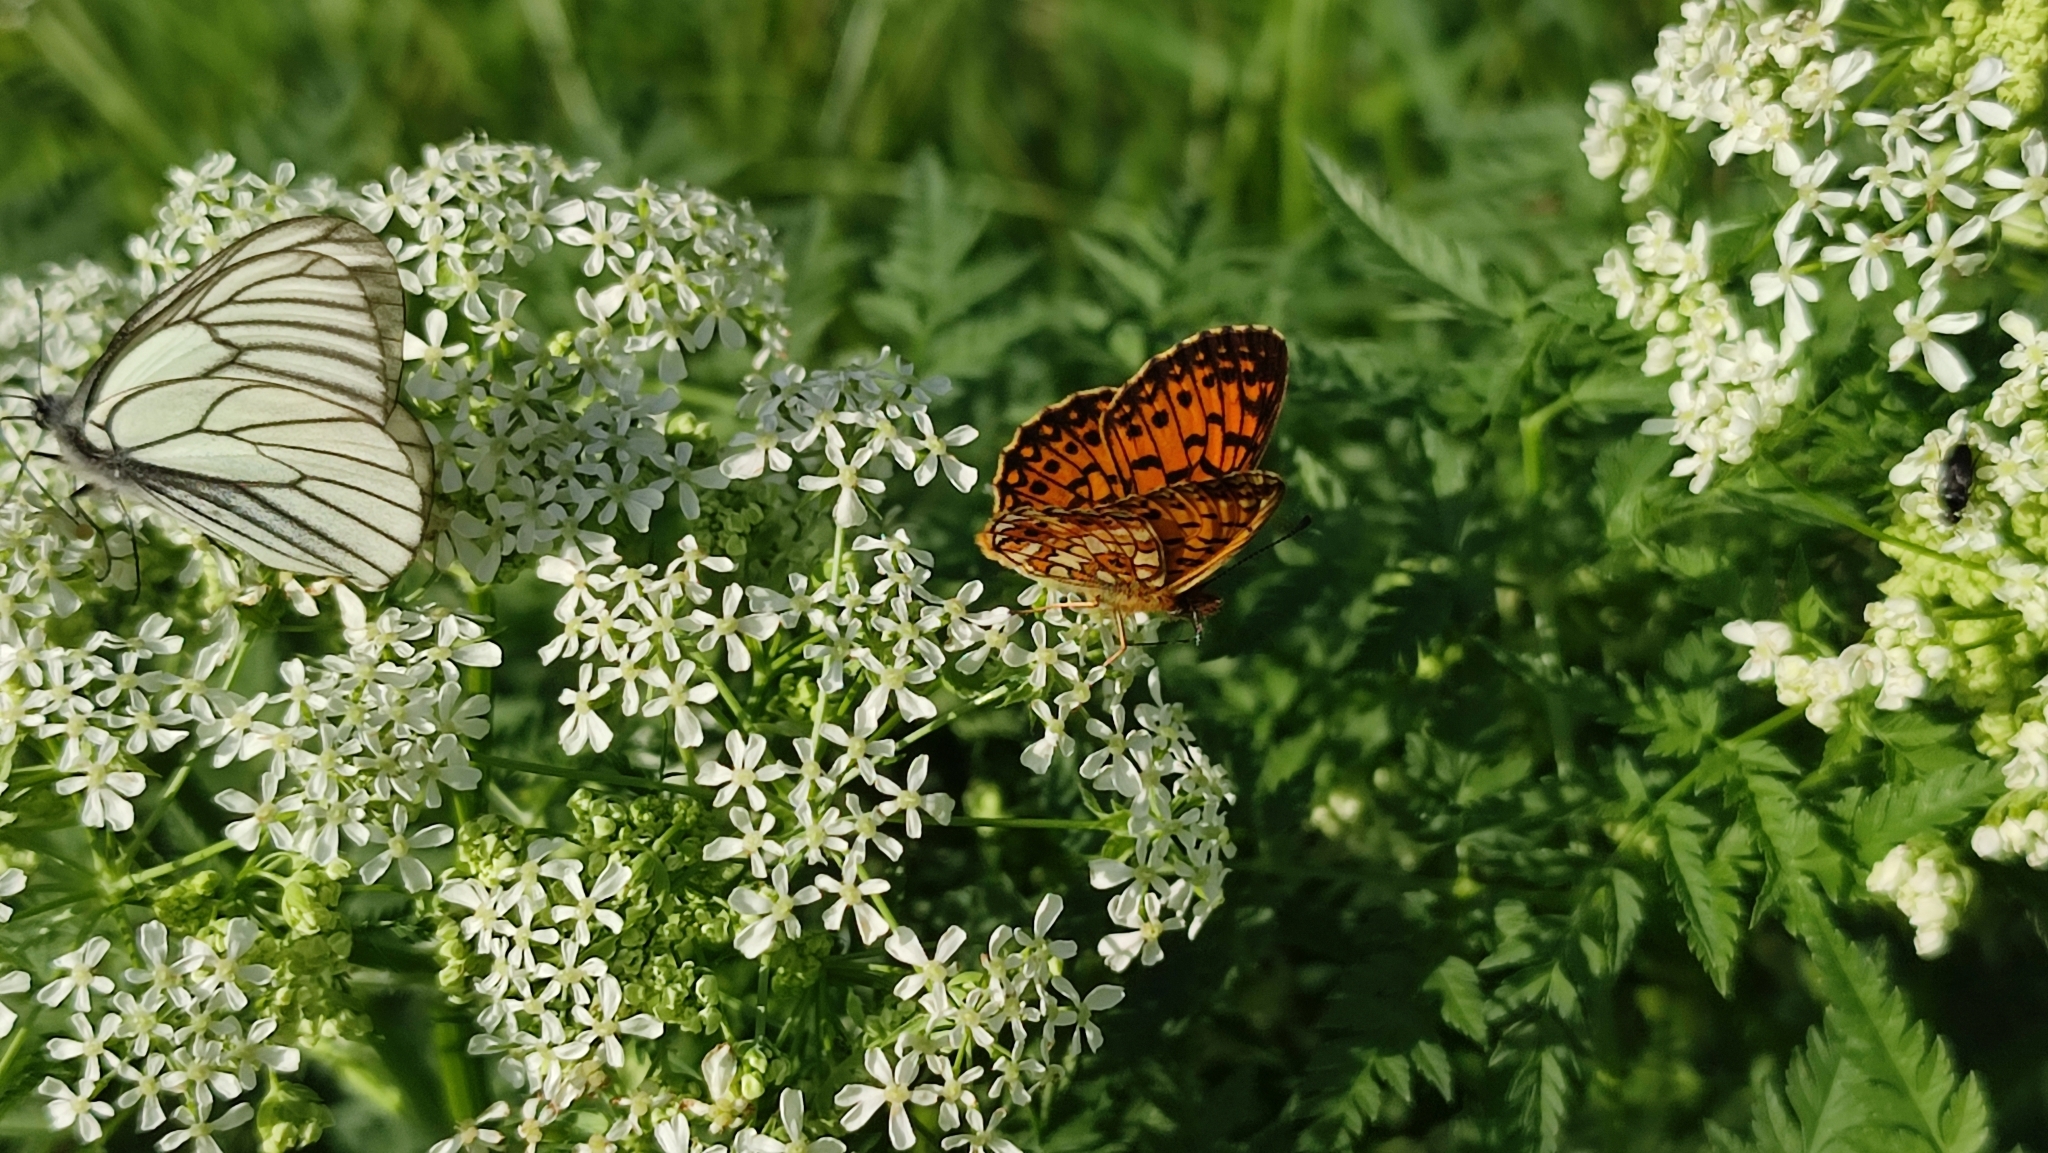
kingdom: Animalia
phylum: Arthropoda
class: Insecta
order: Lepidoptera
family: Nymphalidae
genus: Boloria
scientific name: Boloria selene
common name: Small pearl-bordered fritillary
